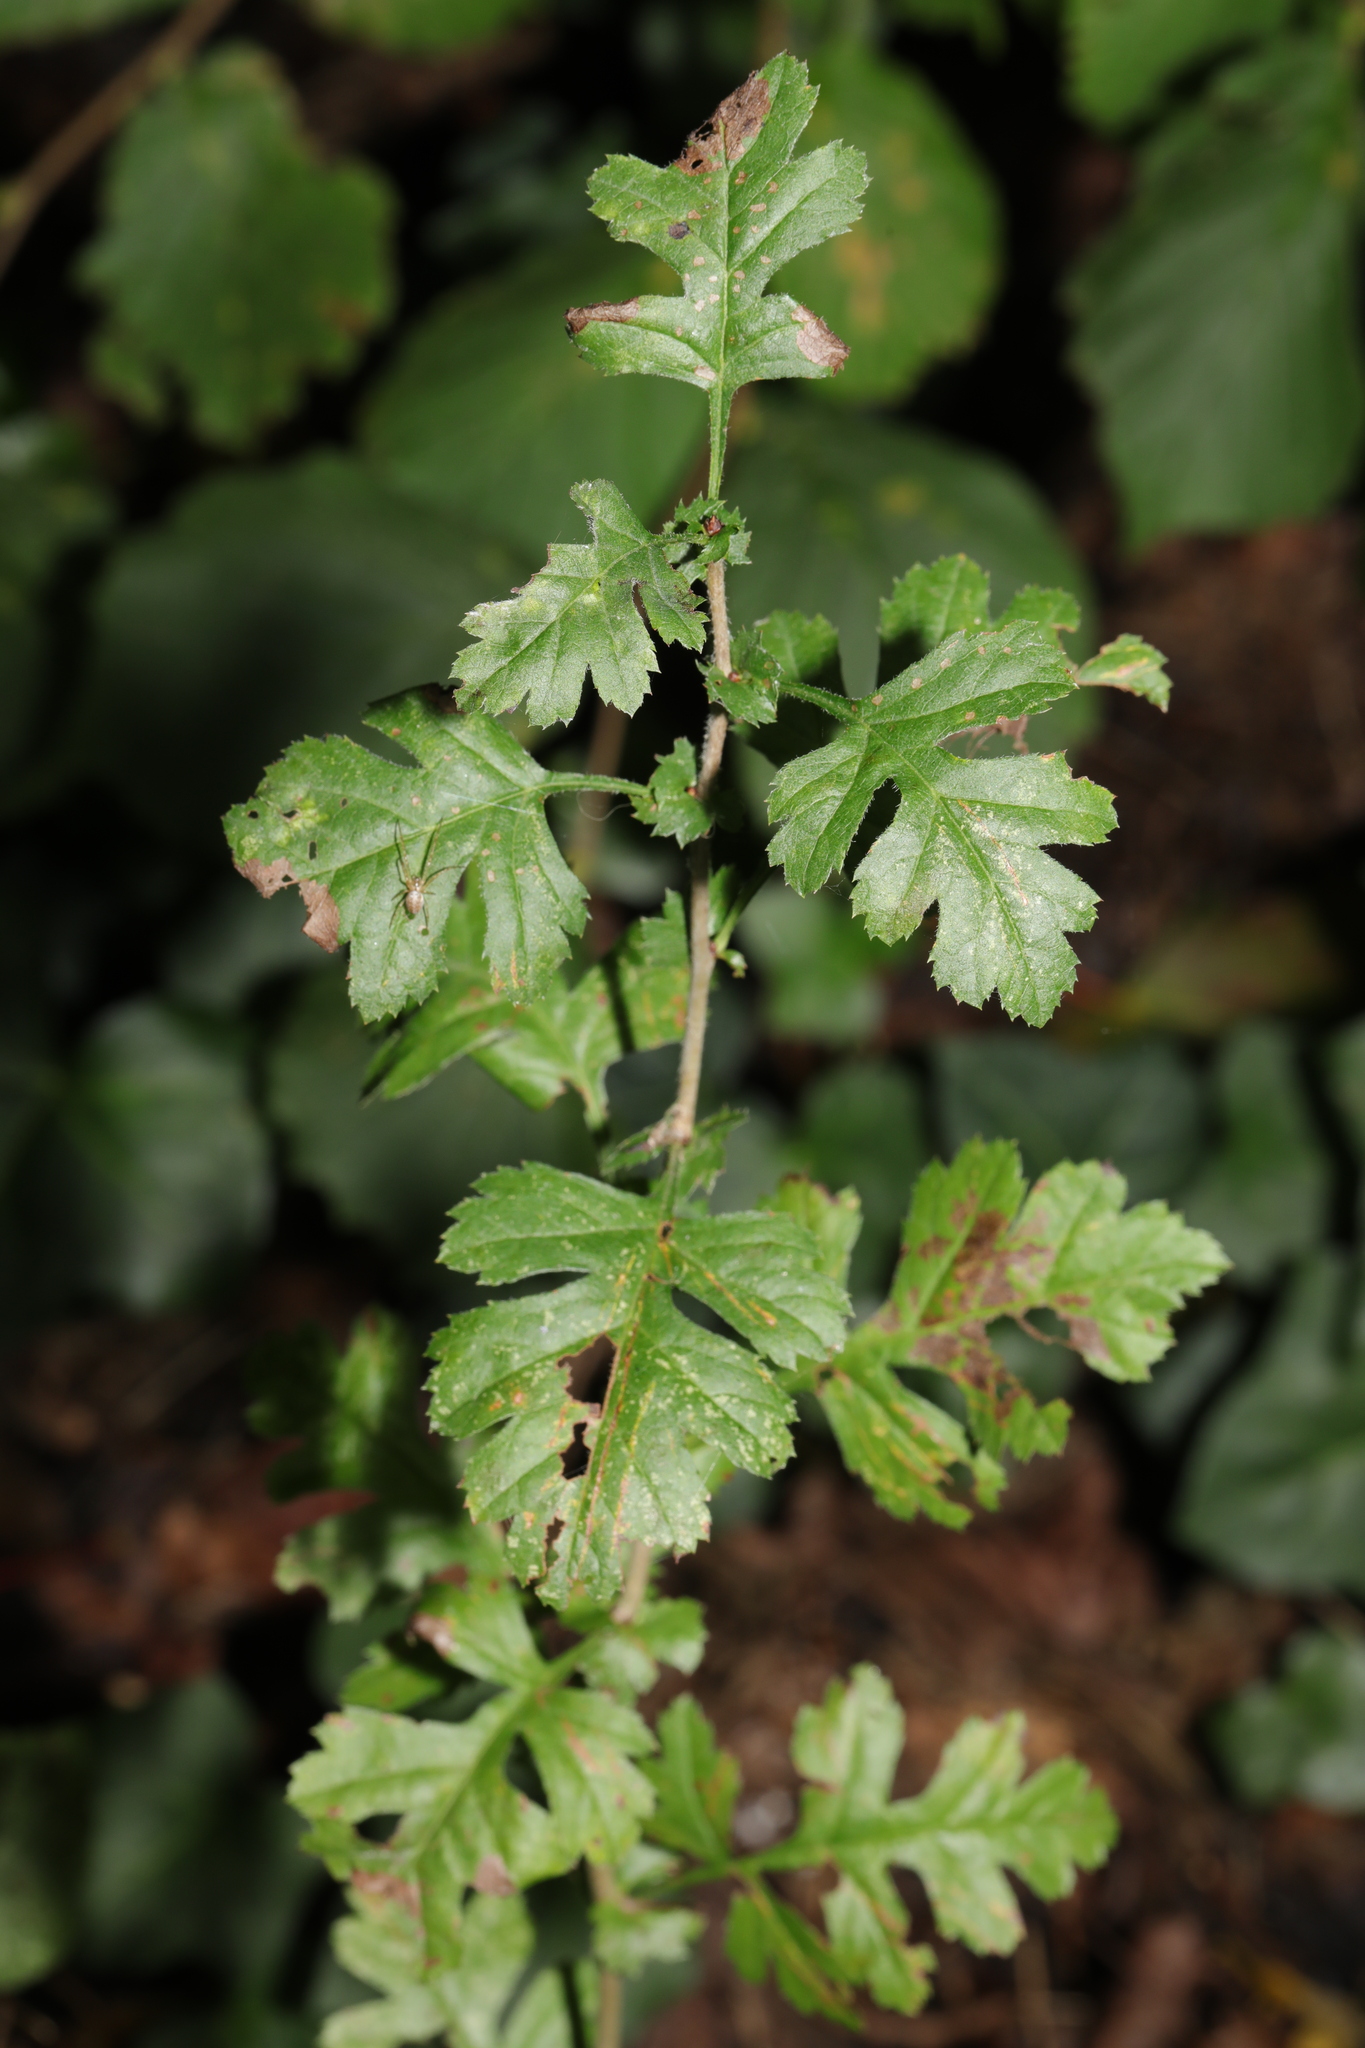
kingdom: Plantae
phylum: Tracheophyta
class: Magnoliopsida
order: Rosales
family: Rosaceae
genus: Crataegus
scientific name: Crataegus monogyna
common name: Hawthorn
